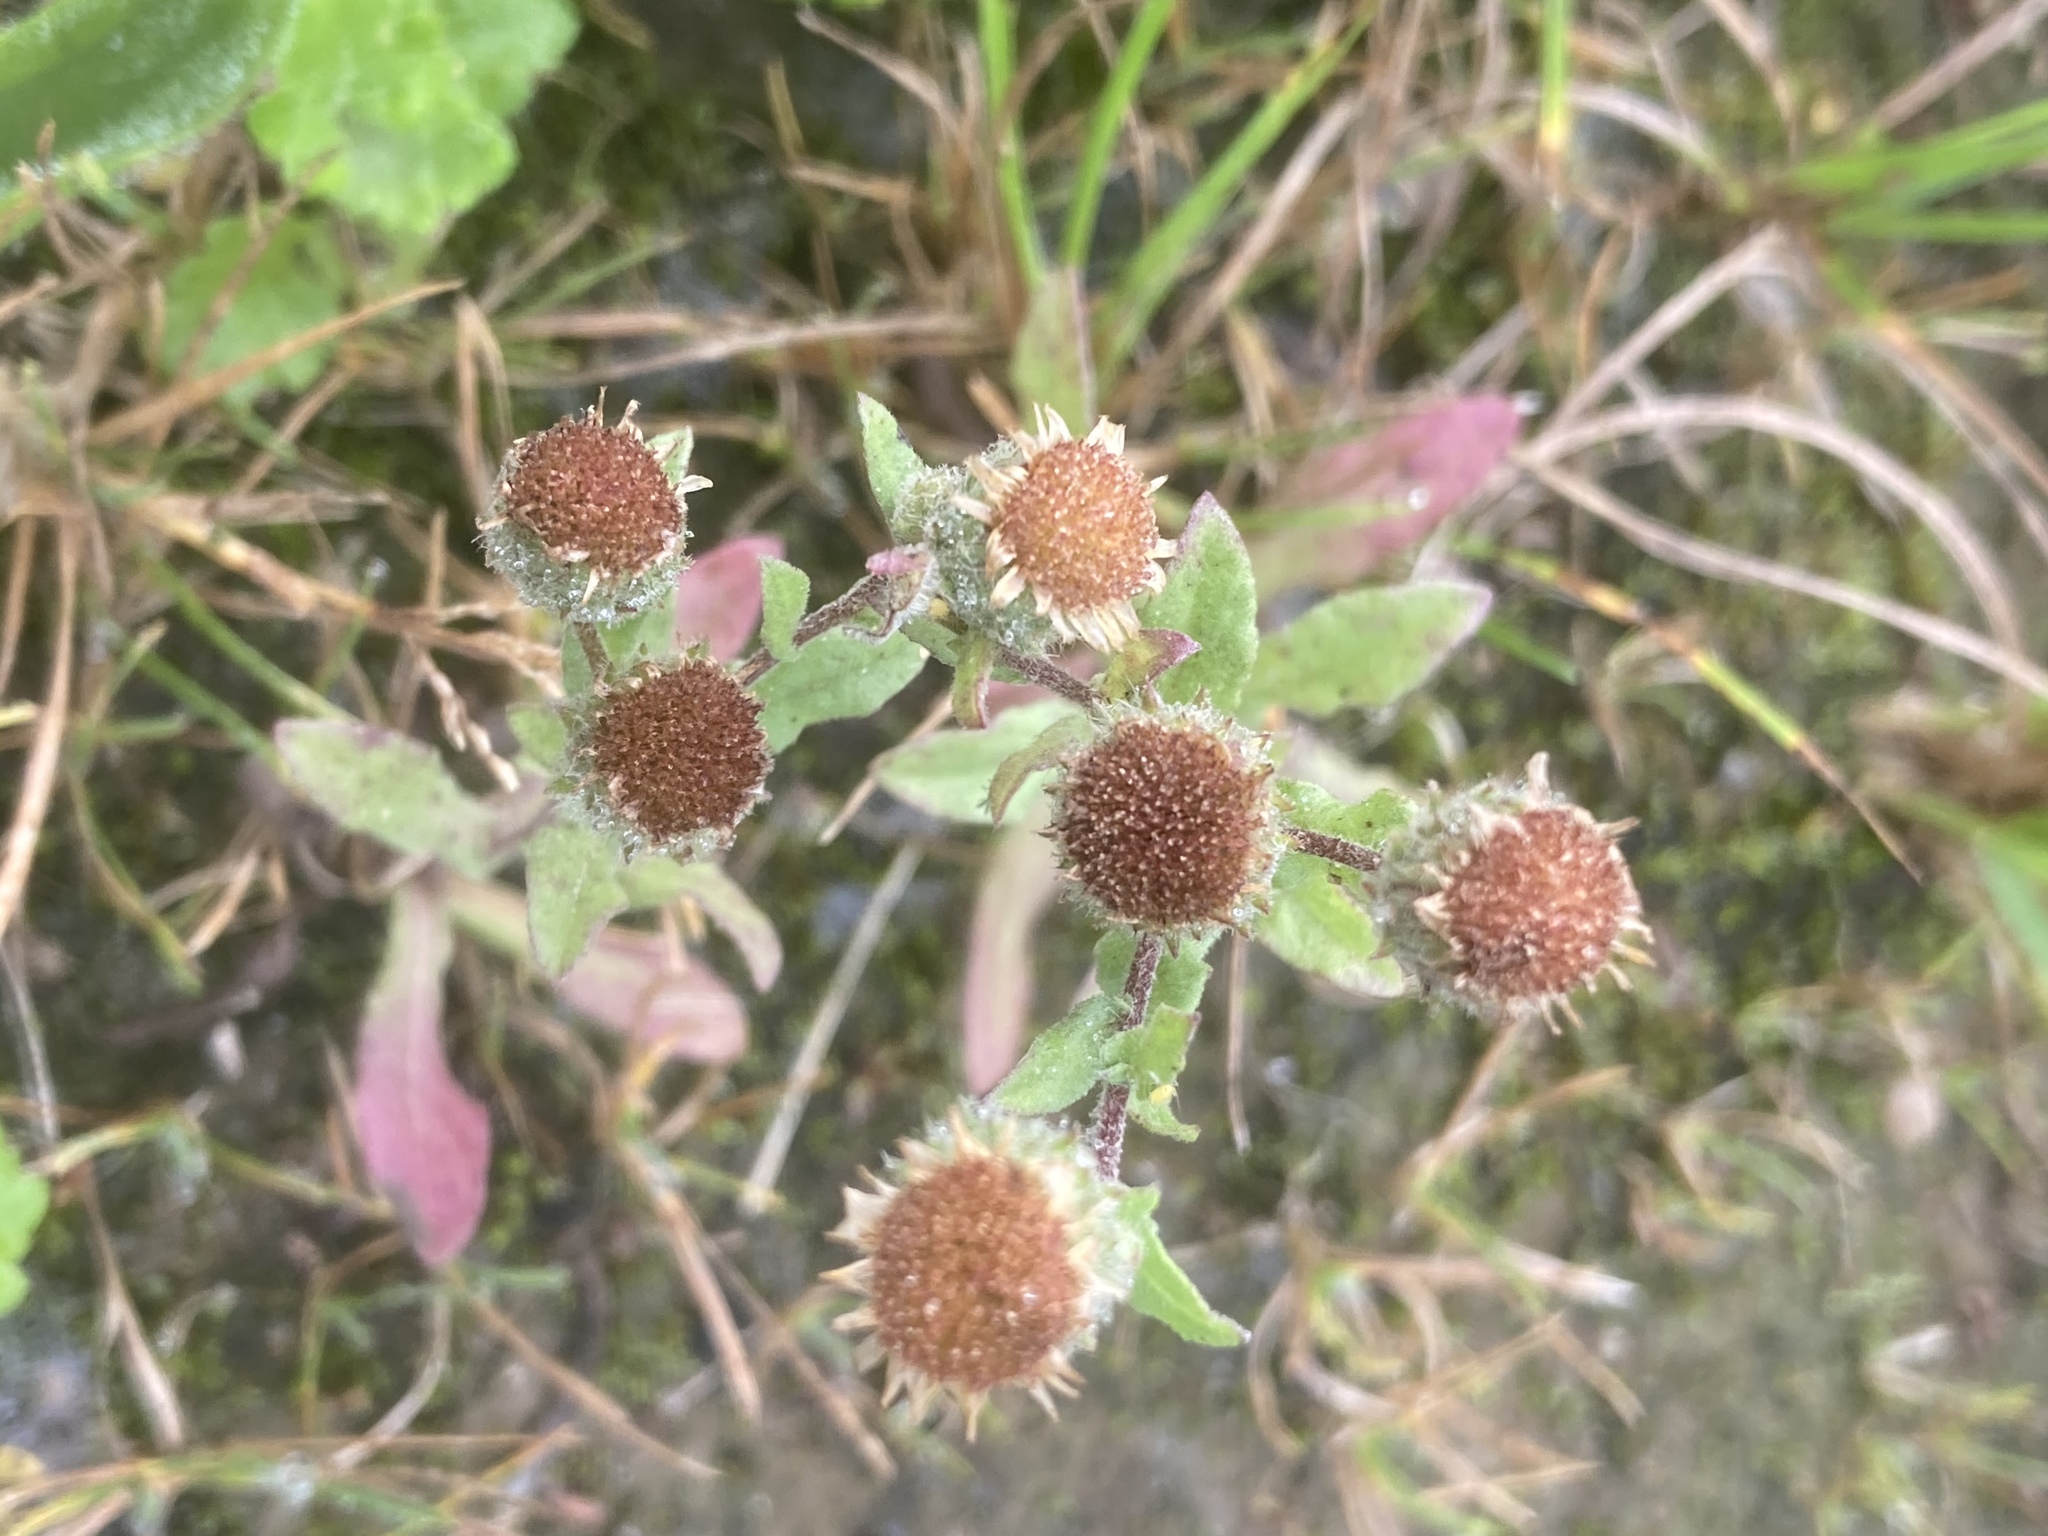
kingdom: Plantae
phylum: Tracheophyta
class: Magnoliopsida
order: Asterales
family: Asteraceae
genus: Pulicaria
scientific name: Pulicaria vulgaris
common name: Small fleabane
